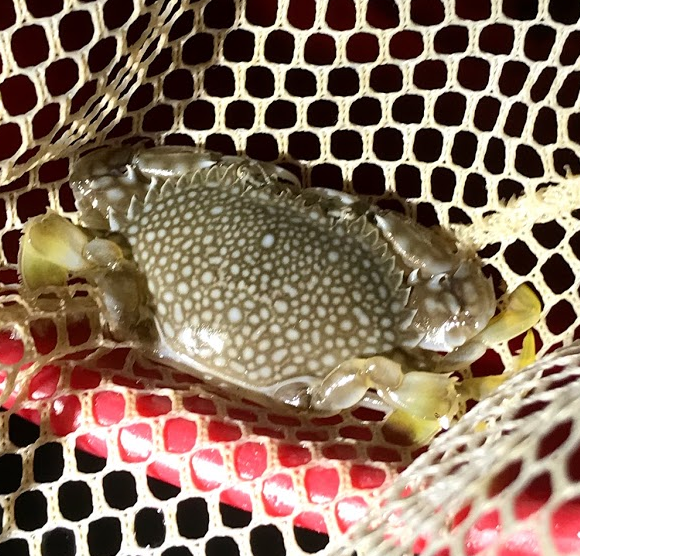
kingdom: Animalia
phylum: Arthropoda
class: Malacostraca
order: Decapoda
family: Portunidae
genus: Arenaeus
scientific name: Arenaeus cribrarius
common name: Speckled crab
